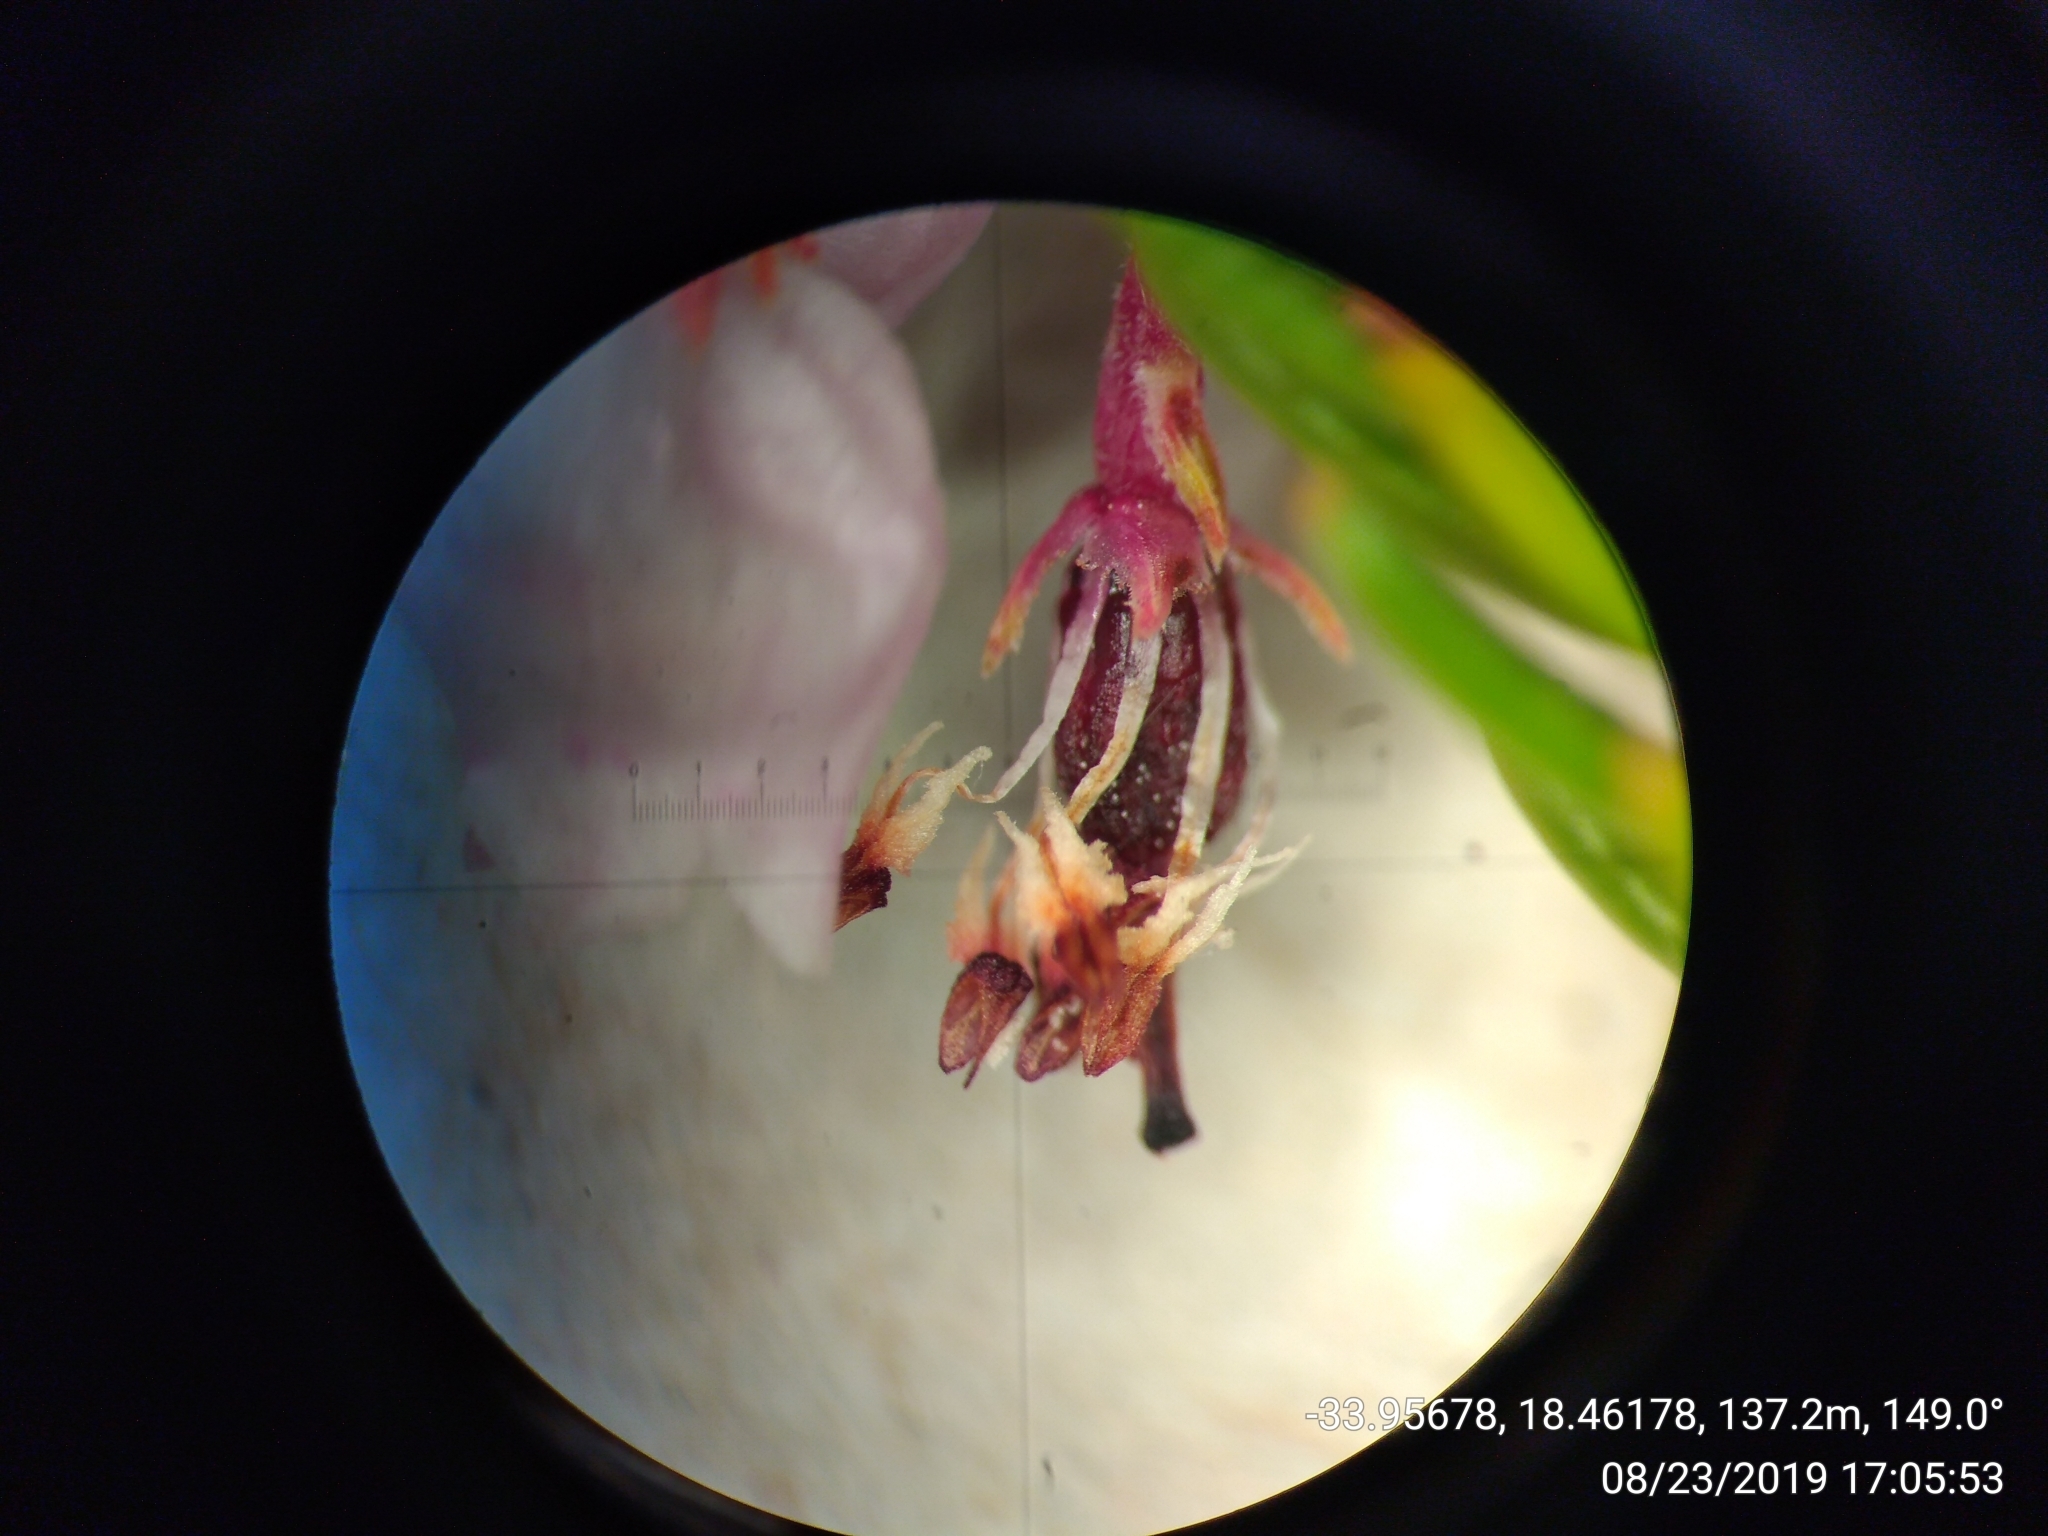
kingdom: Plantae
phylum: Tracheophyta
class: Magnoliopsida
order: Ericales
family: Ericaceae
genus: Erica
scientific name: Erica verecunda
